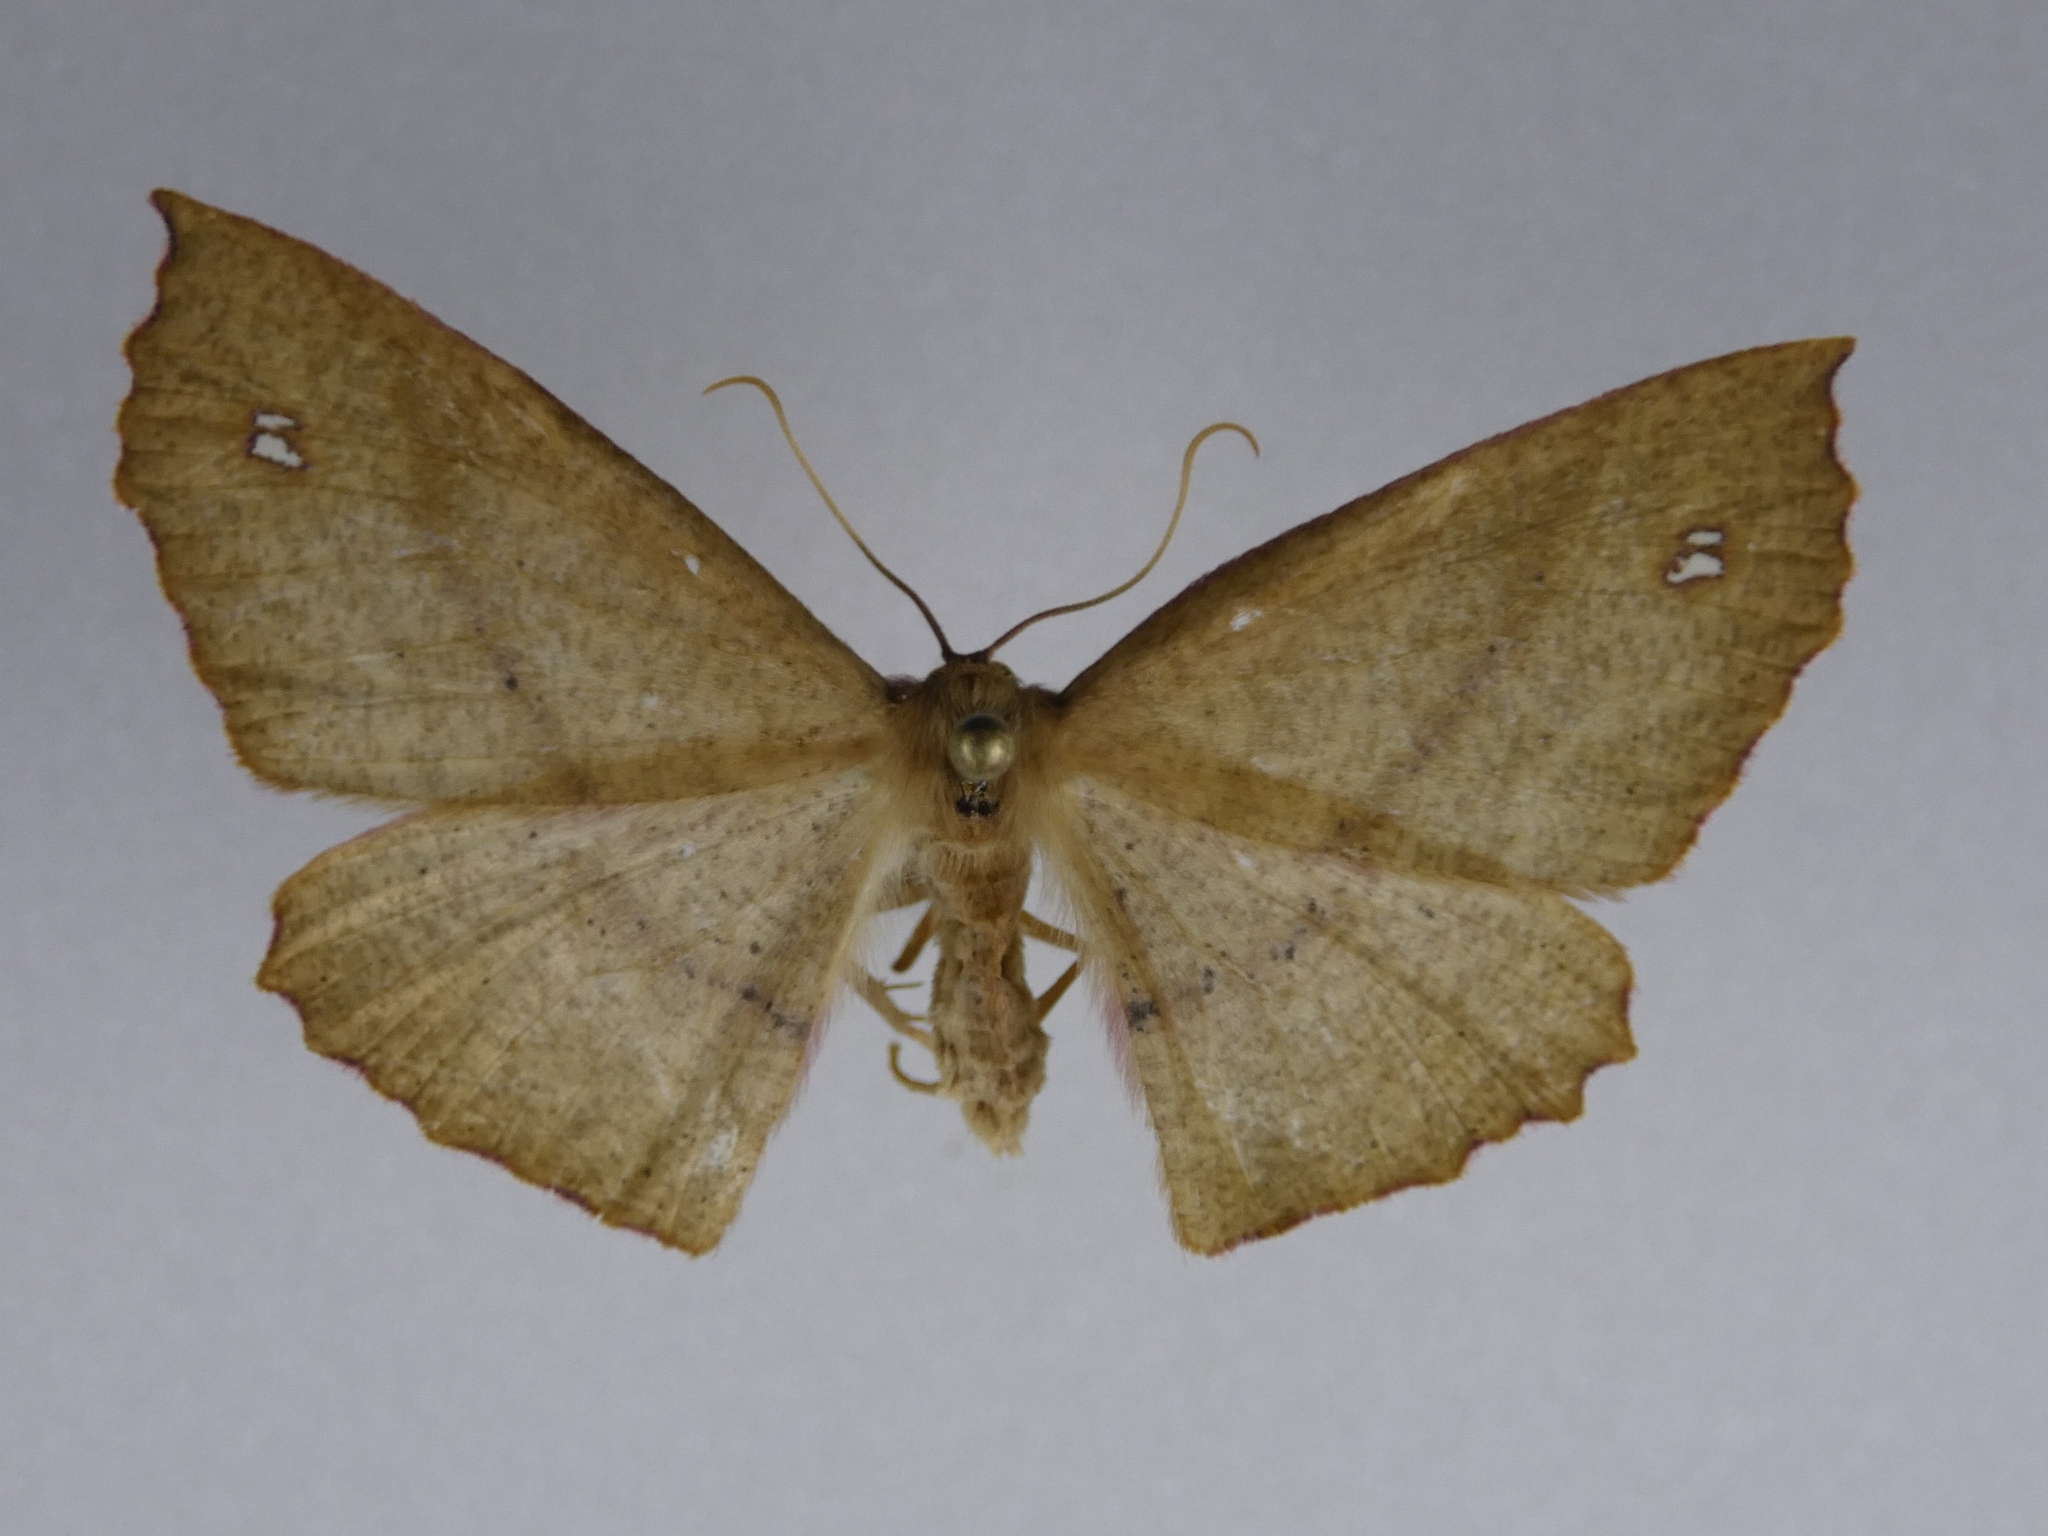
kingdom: Animalia
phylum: Arthropoda
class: Insecta
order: Lepidoptera
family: Geometridae
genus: Xyridacma
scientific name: Xyridacma ustaria
